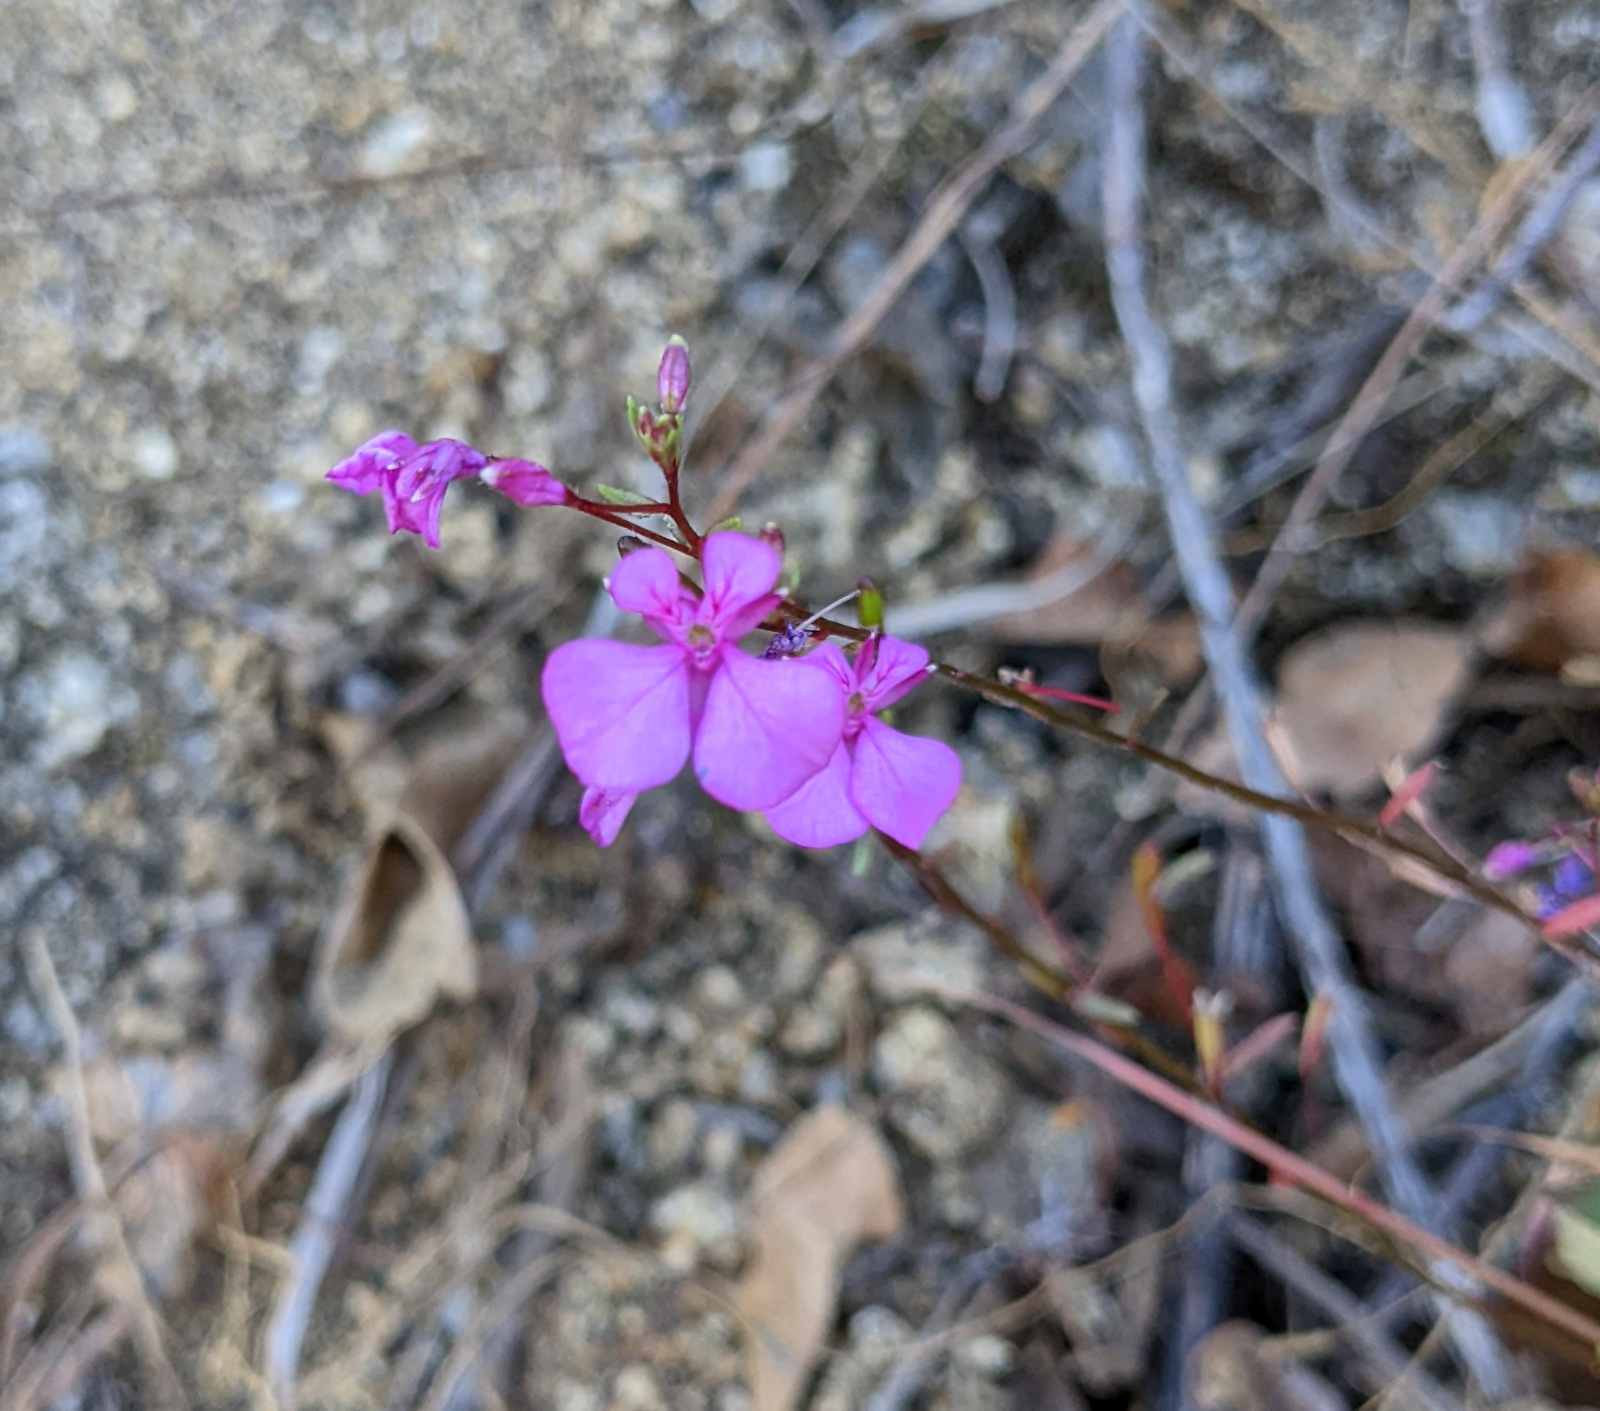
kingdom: Plantae
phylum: Tracheophyta
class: Magnoliopsida
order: Myrtales
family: Onagraceae
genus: Lopezia
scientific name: Lopezia clavata
